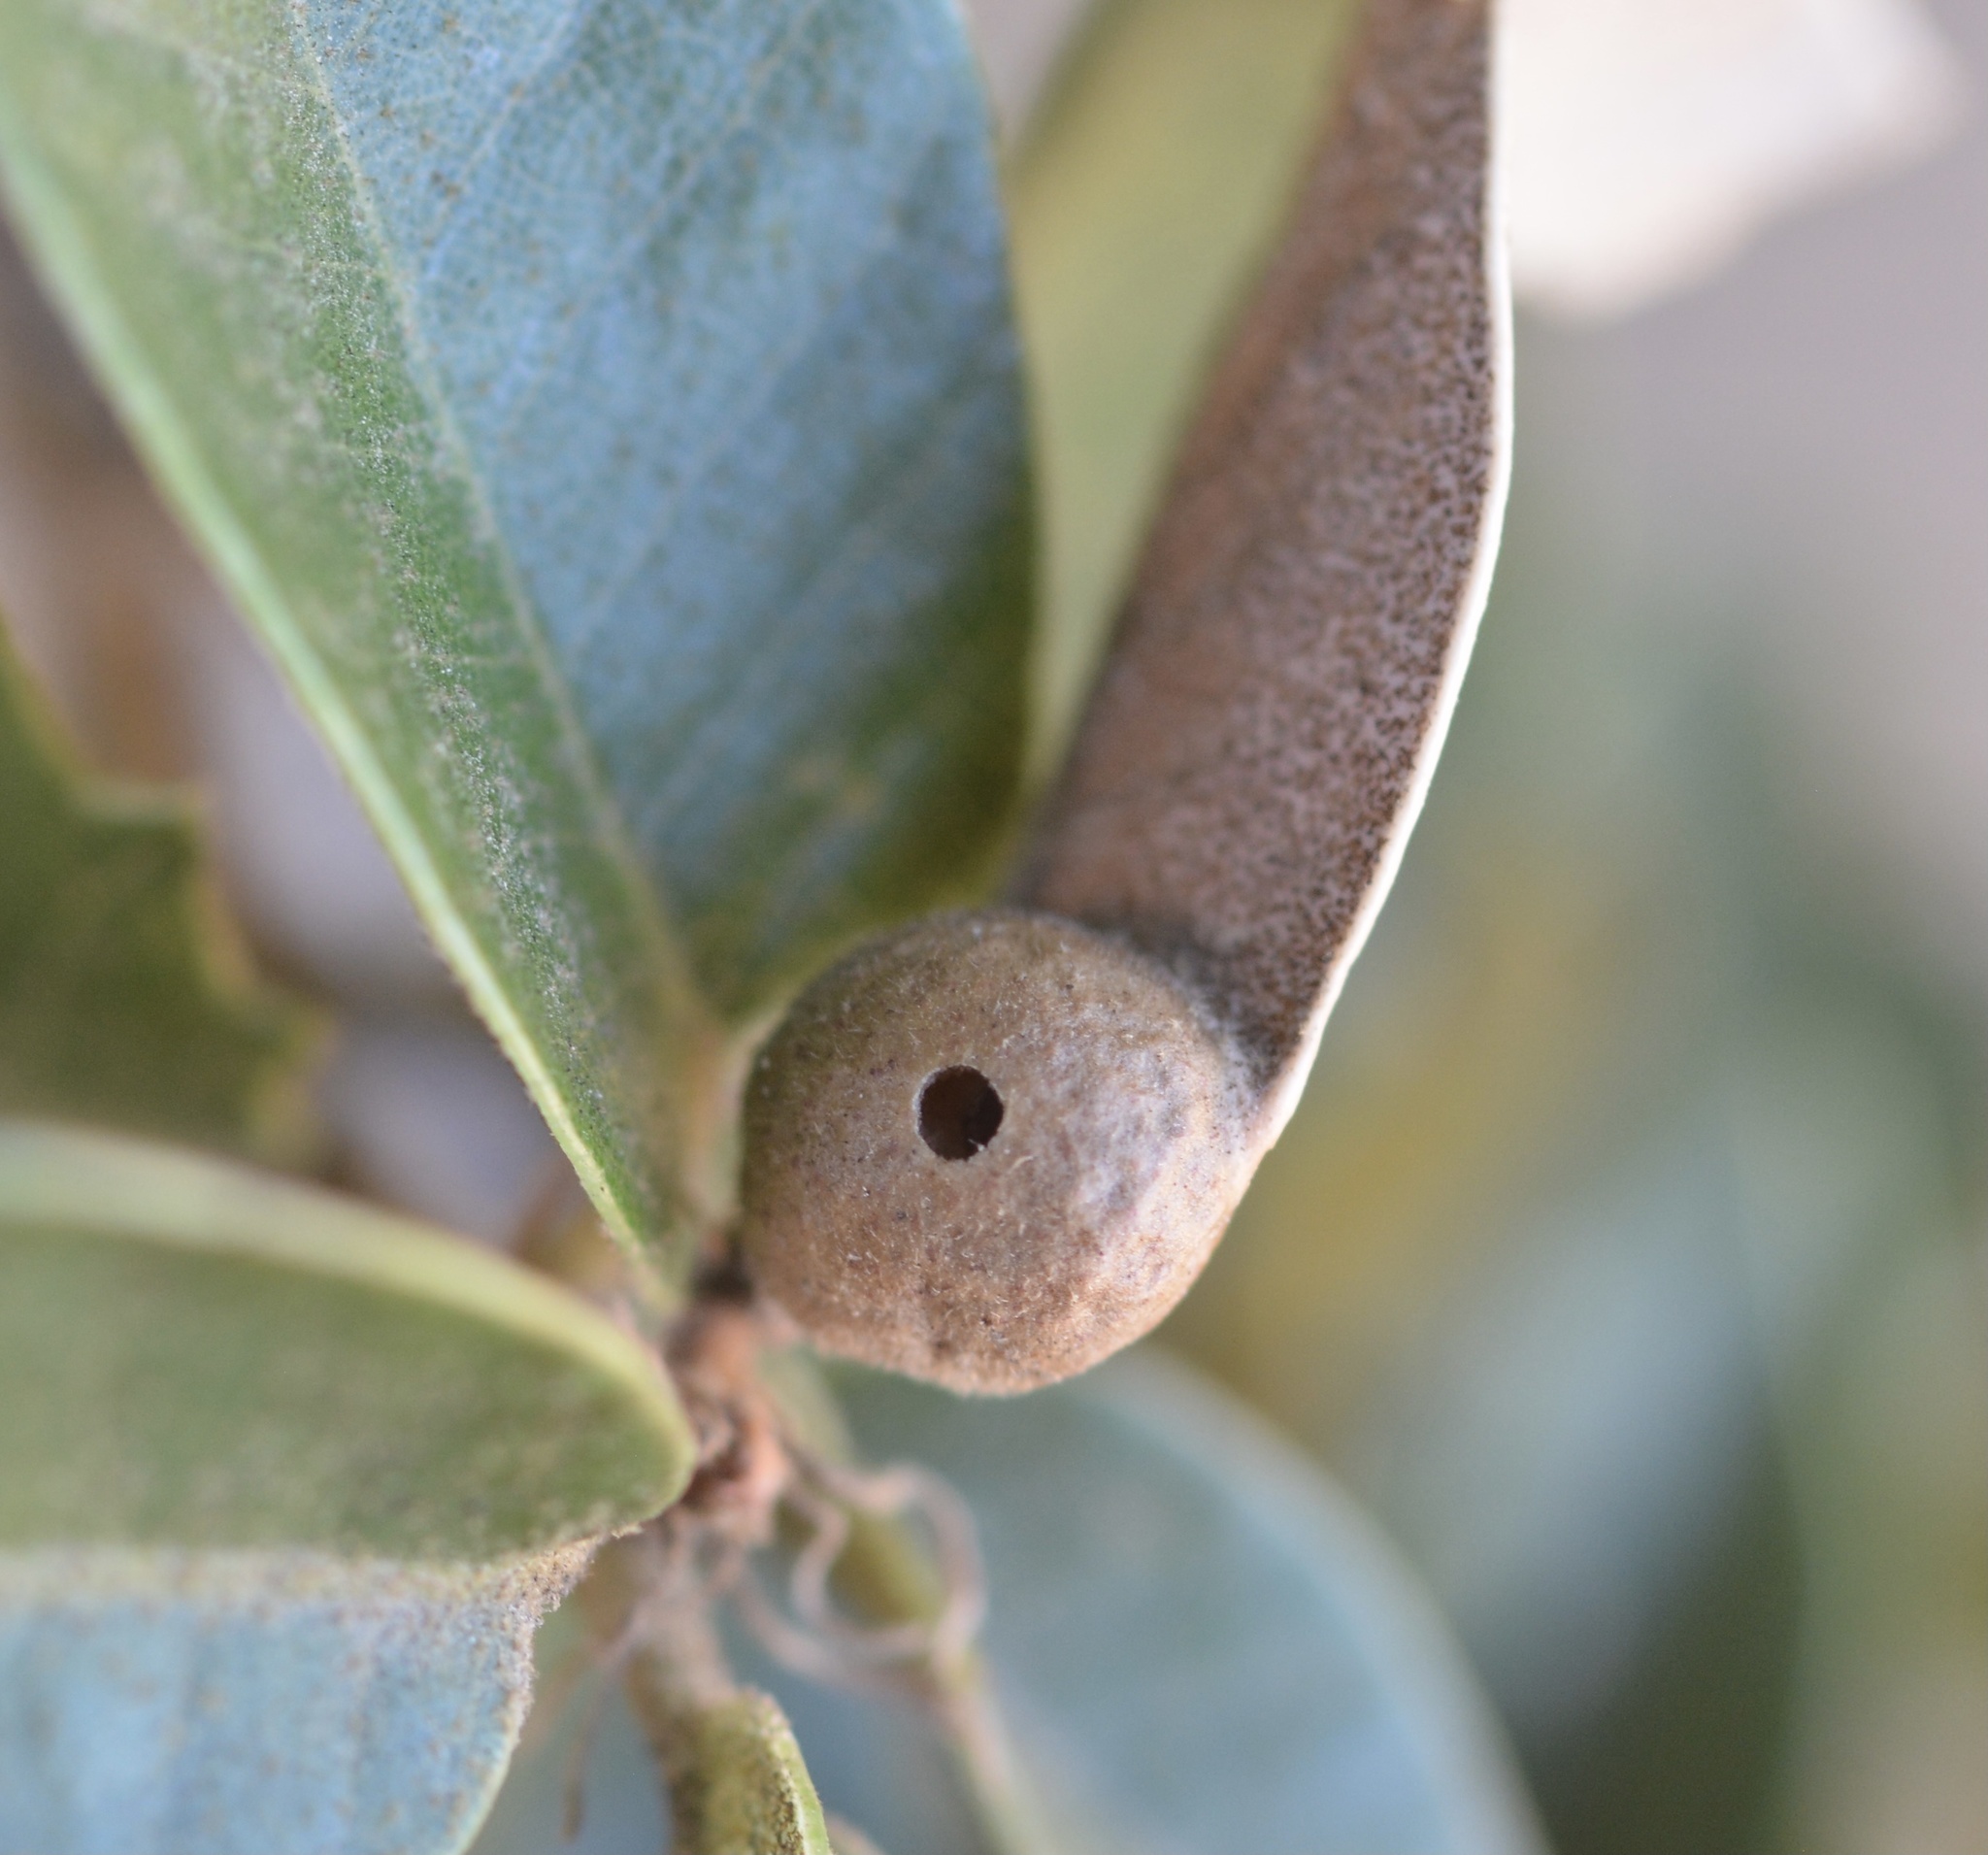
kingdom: Animalia
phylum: Arthropoda
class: Insecta
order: Hymenoptera
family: Cynipidae
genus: Heteroecus
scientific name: Heteroecus
